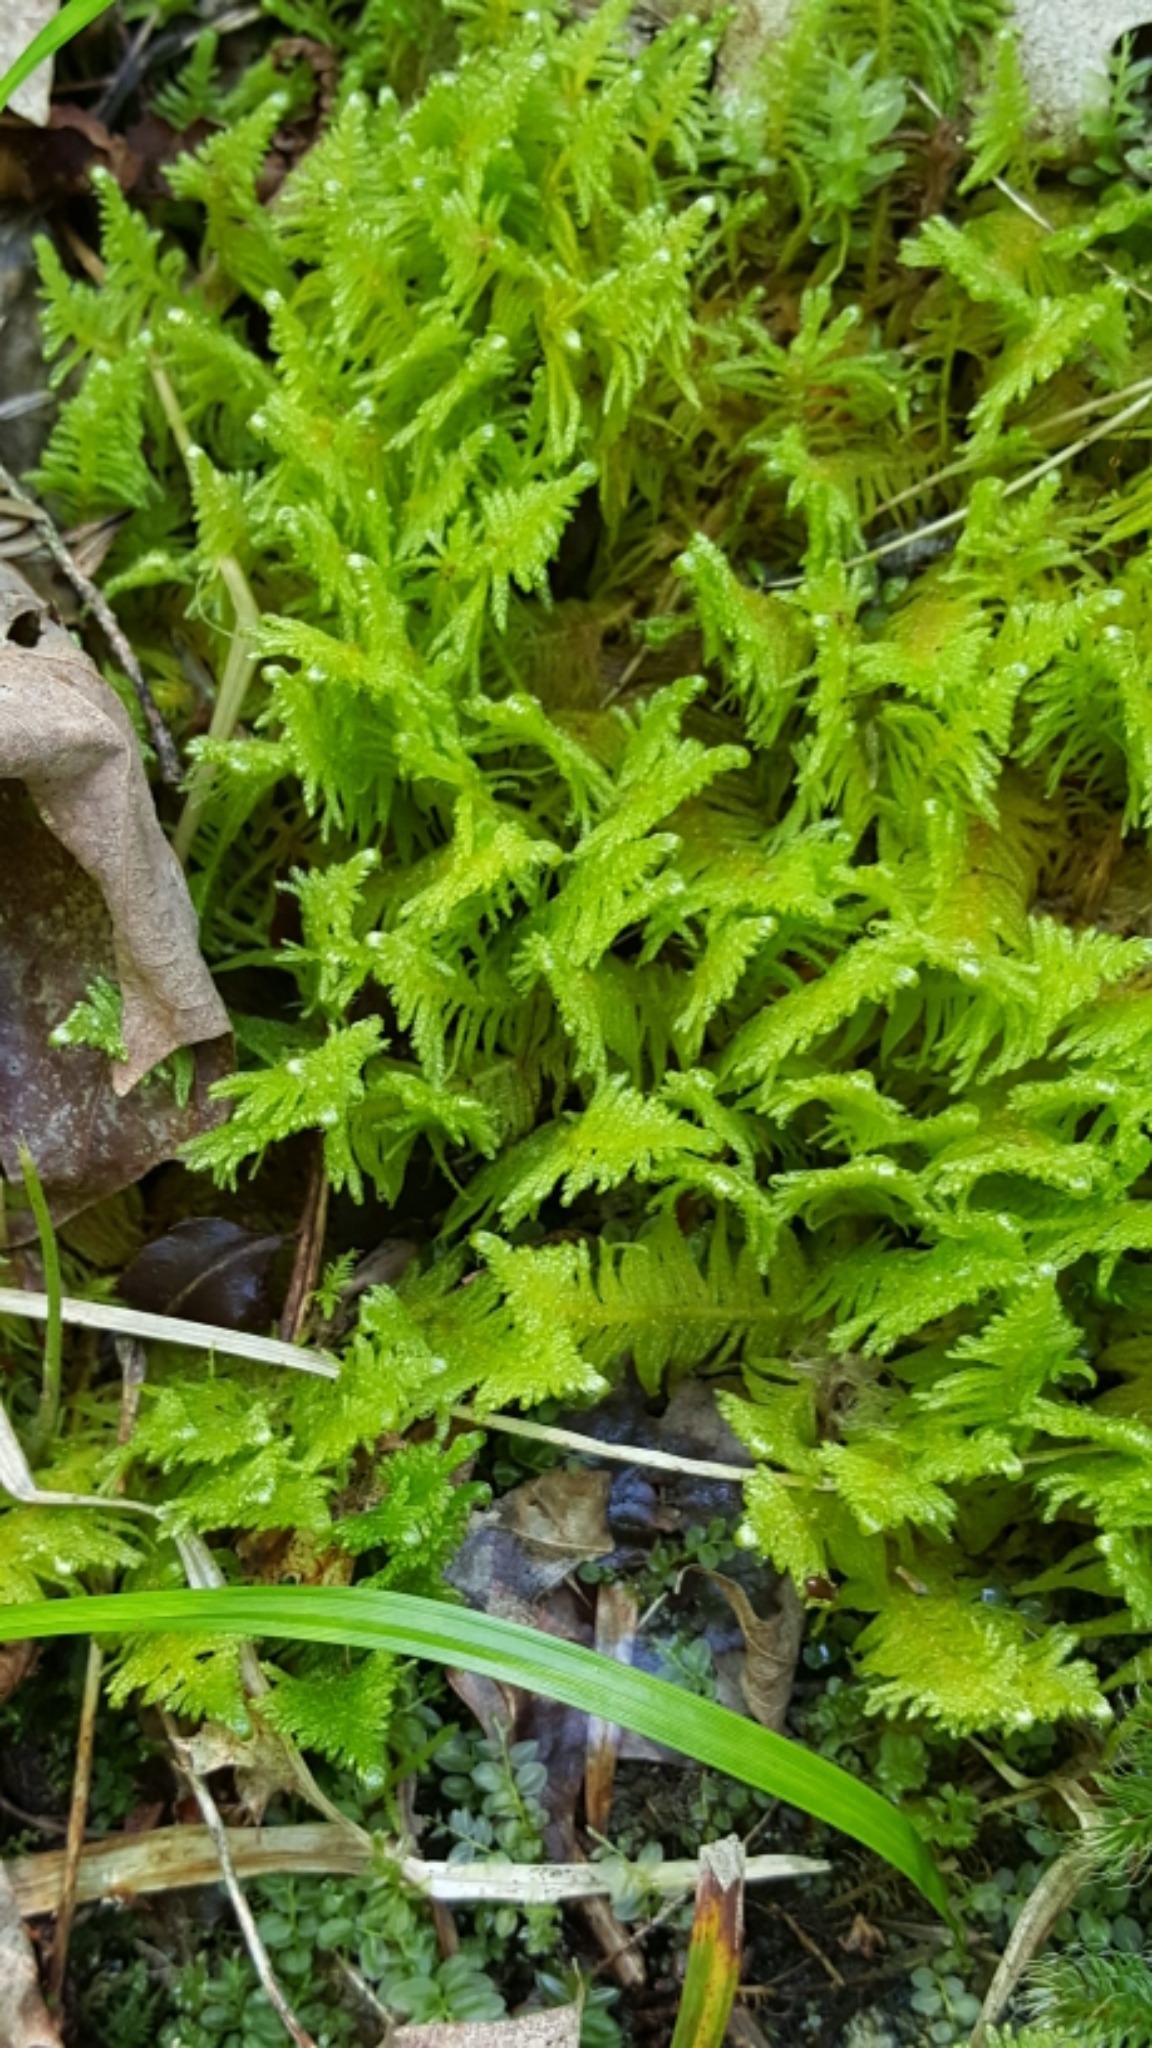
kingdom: Plantae
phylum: Bryophyta
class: Bryopsida
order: Hypnales
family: Pylaisiaceae
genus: Ptilium
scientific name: Ptilium crista-castrensis
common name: Knight's plume moss
